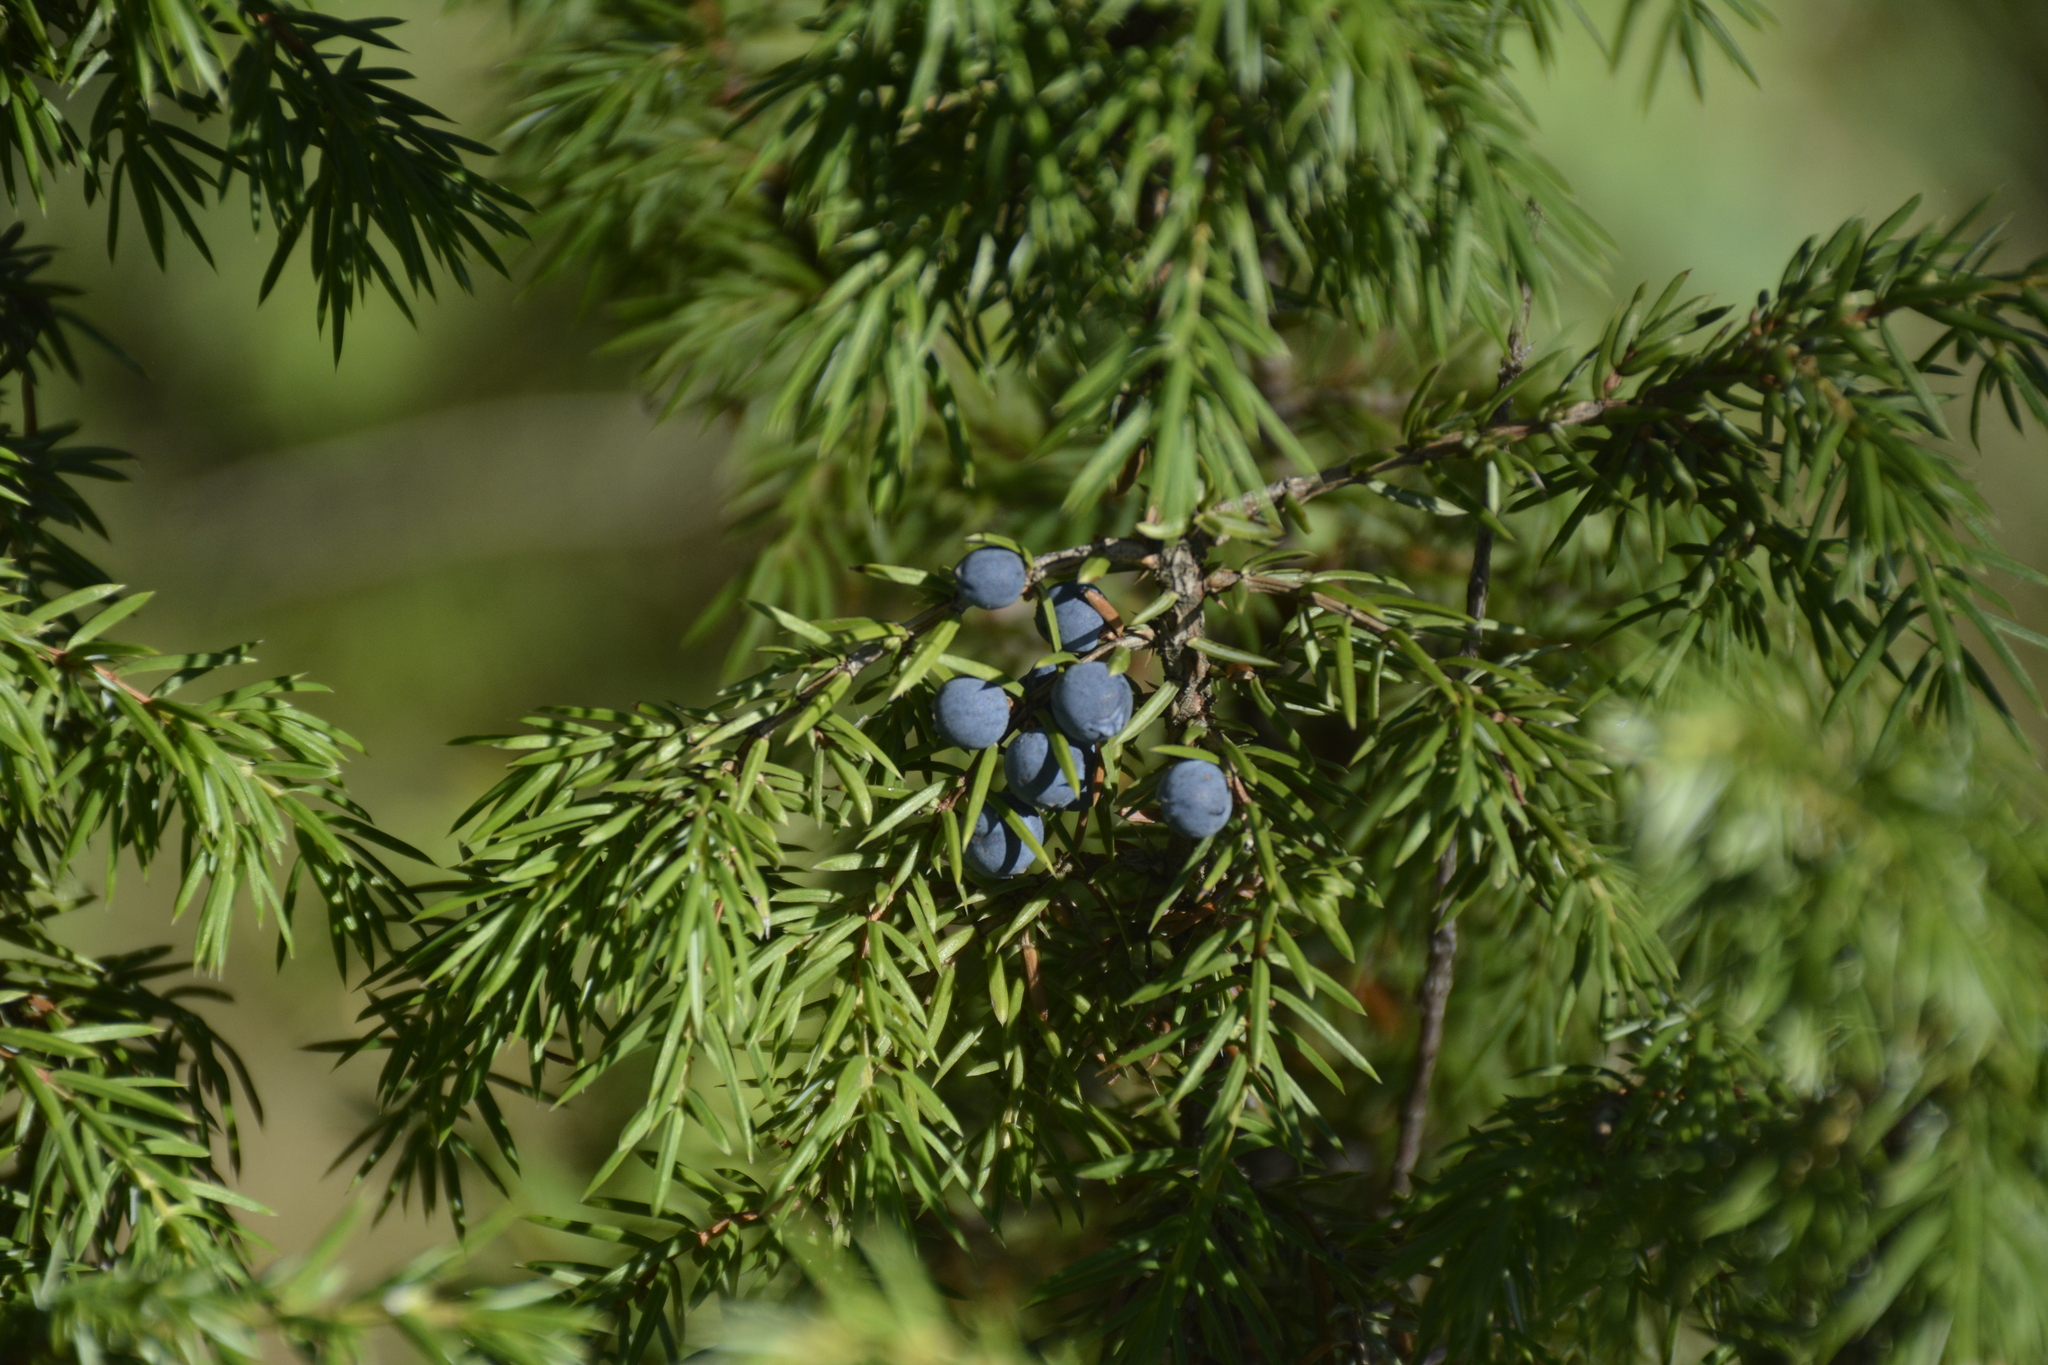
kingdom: Plantae
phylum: Tracheophyta
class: Pinopsida
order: Pinales
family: Cupressaceae
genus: Juniperus
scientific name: Juniperus communis
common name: Common juniper
